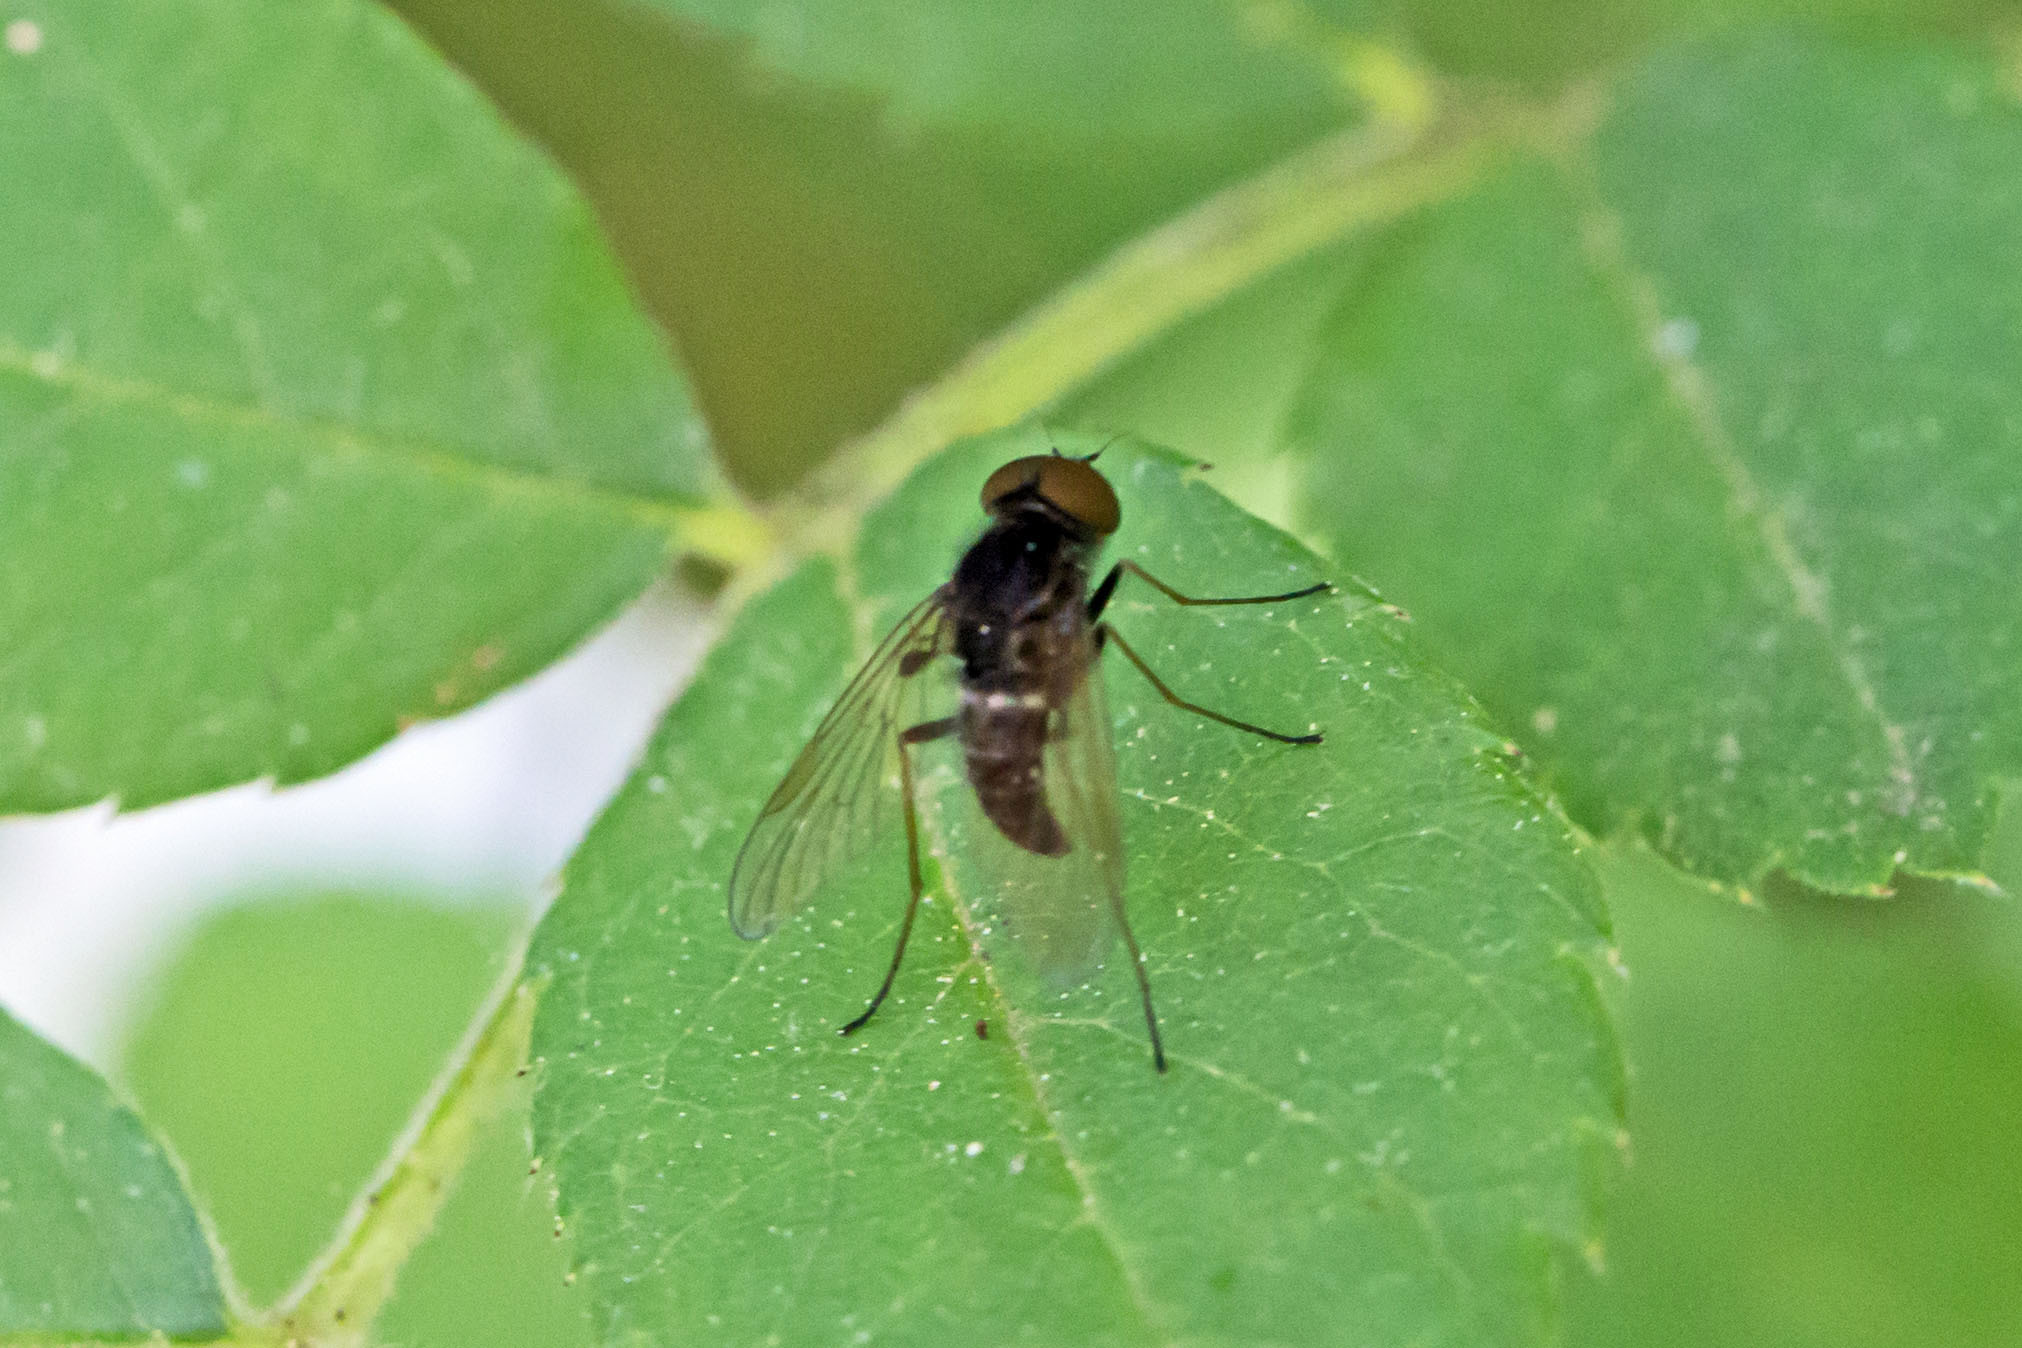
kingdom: Animalia
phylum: Arthropoda
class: Insecta
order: Diptera
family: Rhagionidae
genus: Chrysopilus
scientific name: Chrysopilus proximus
